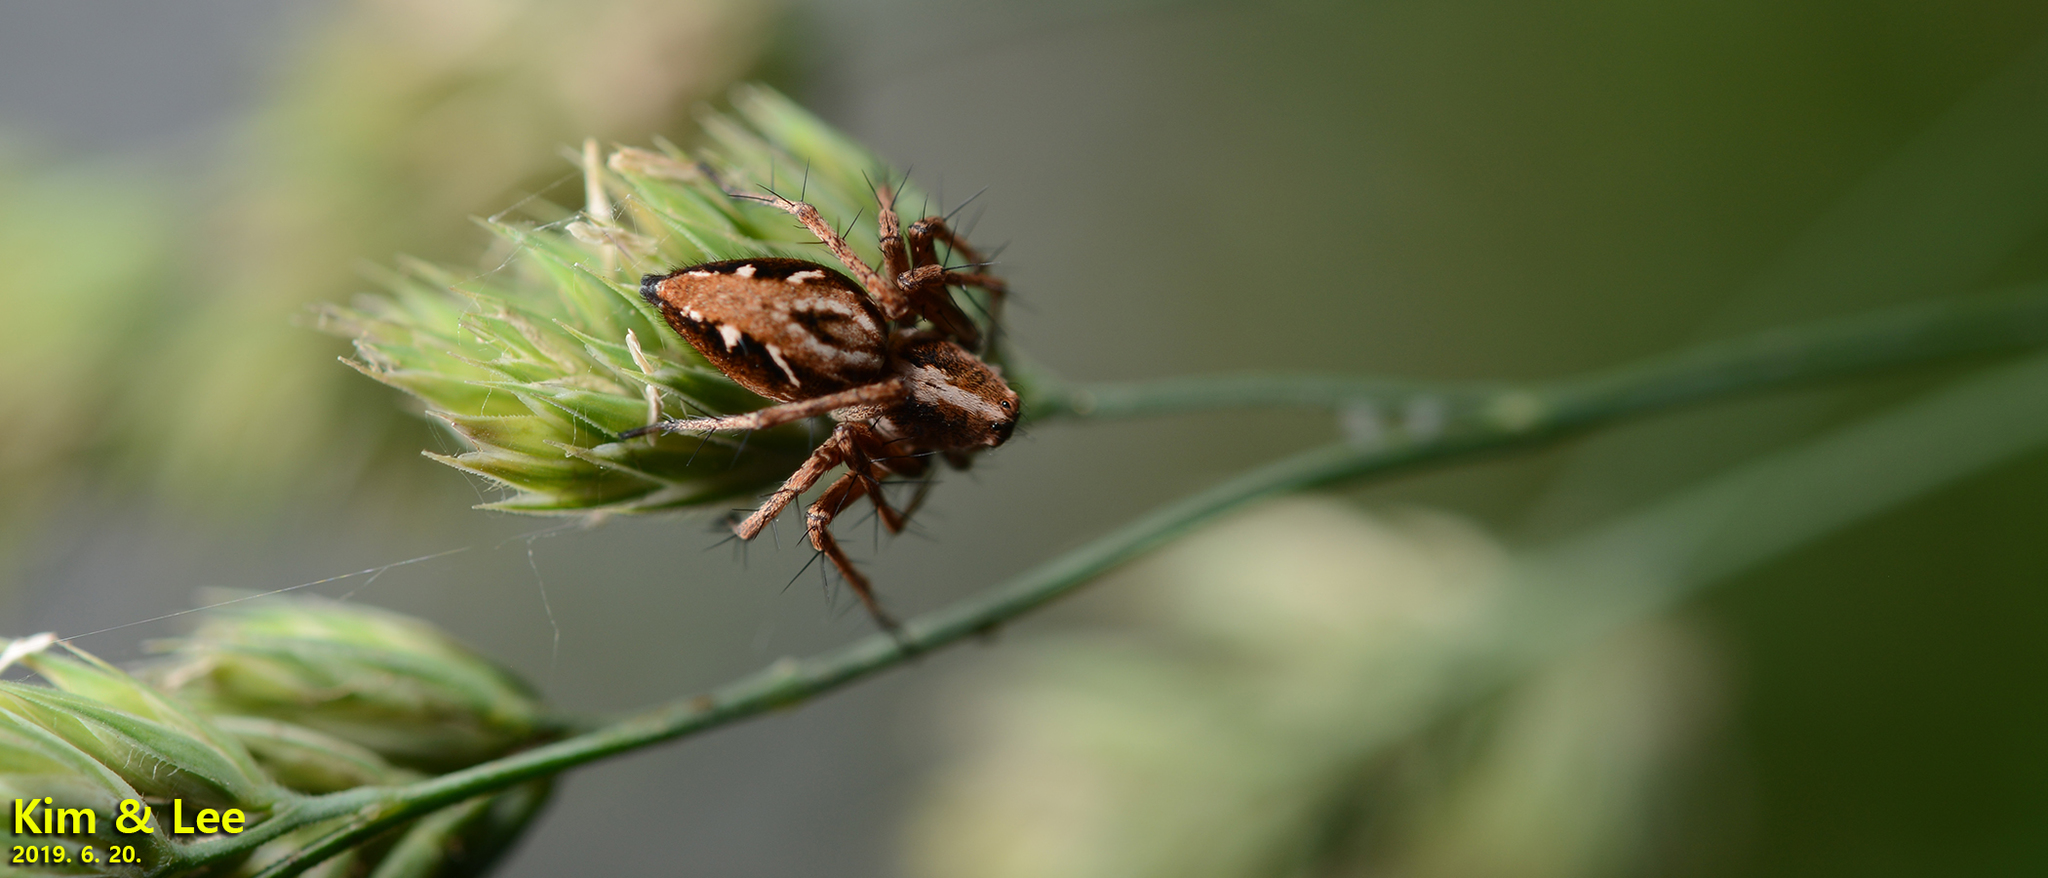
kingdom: Animalia
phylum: Arthropoda
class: Arachnida
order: Araneae
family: Oxyopidae
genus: Oxyopes
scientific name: Oxyopes licenti
